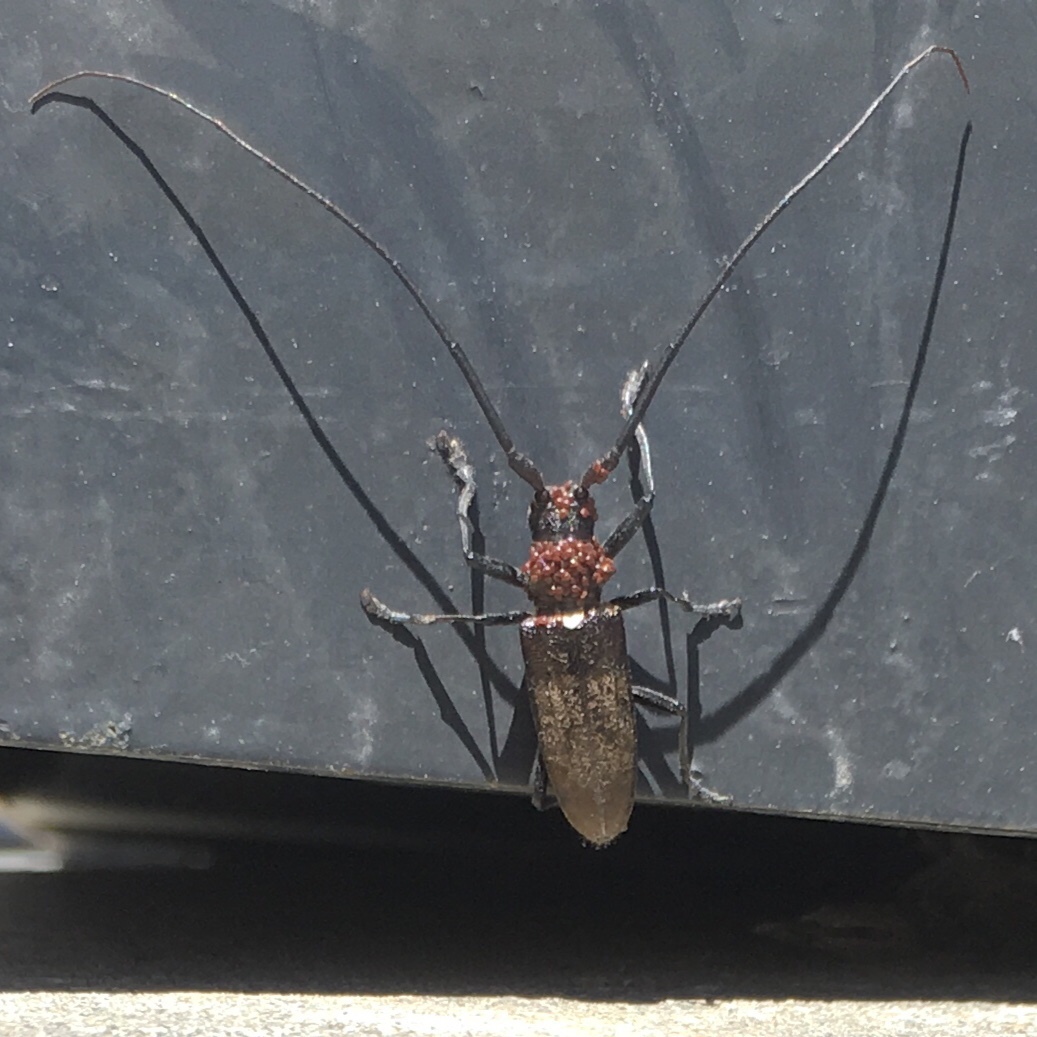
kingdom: Animalia
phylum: Arthropoda
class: Insecta
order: Coleoptera
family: Cerambycidae
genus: Monochamus
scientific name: Monochamus scutellatus
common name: White-spotted sawyer beetle
